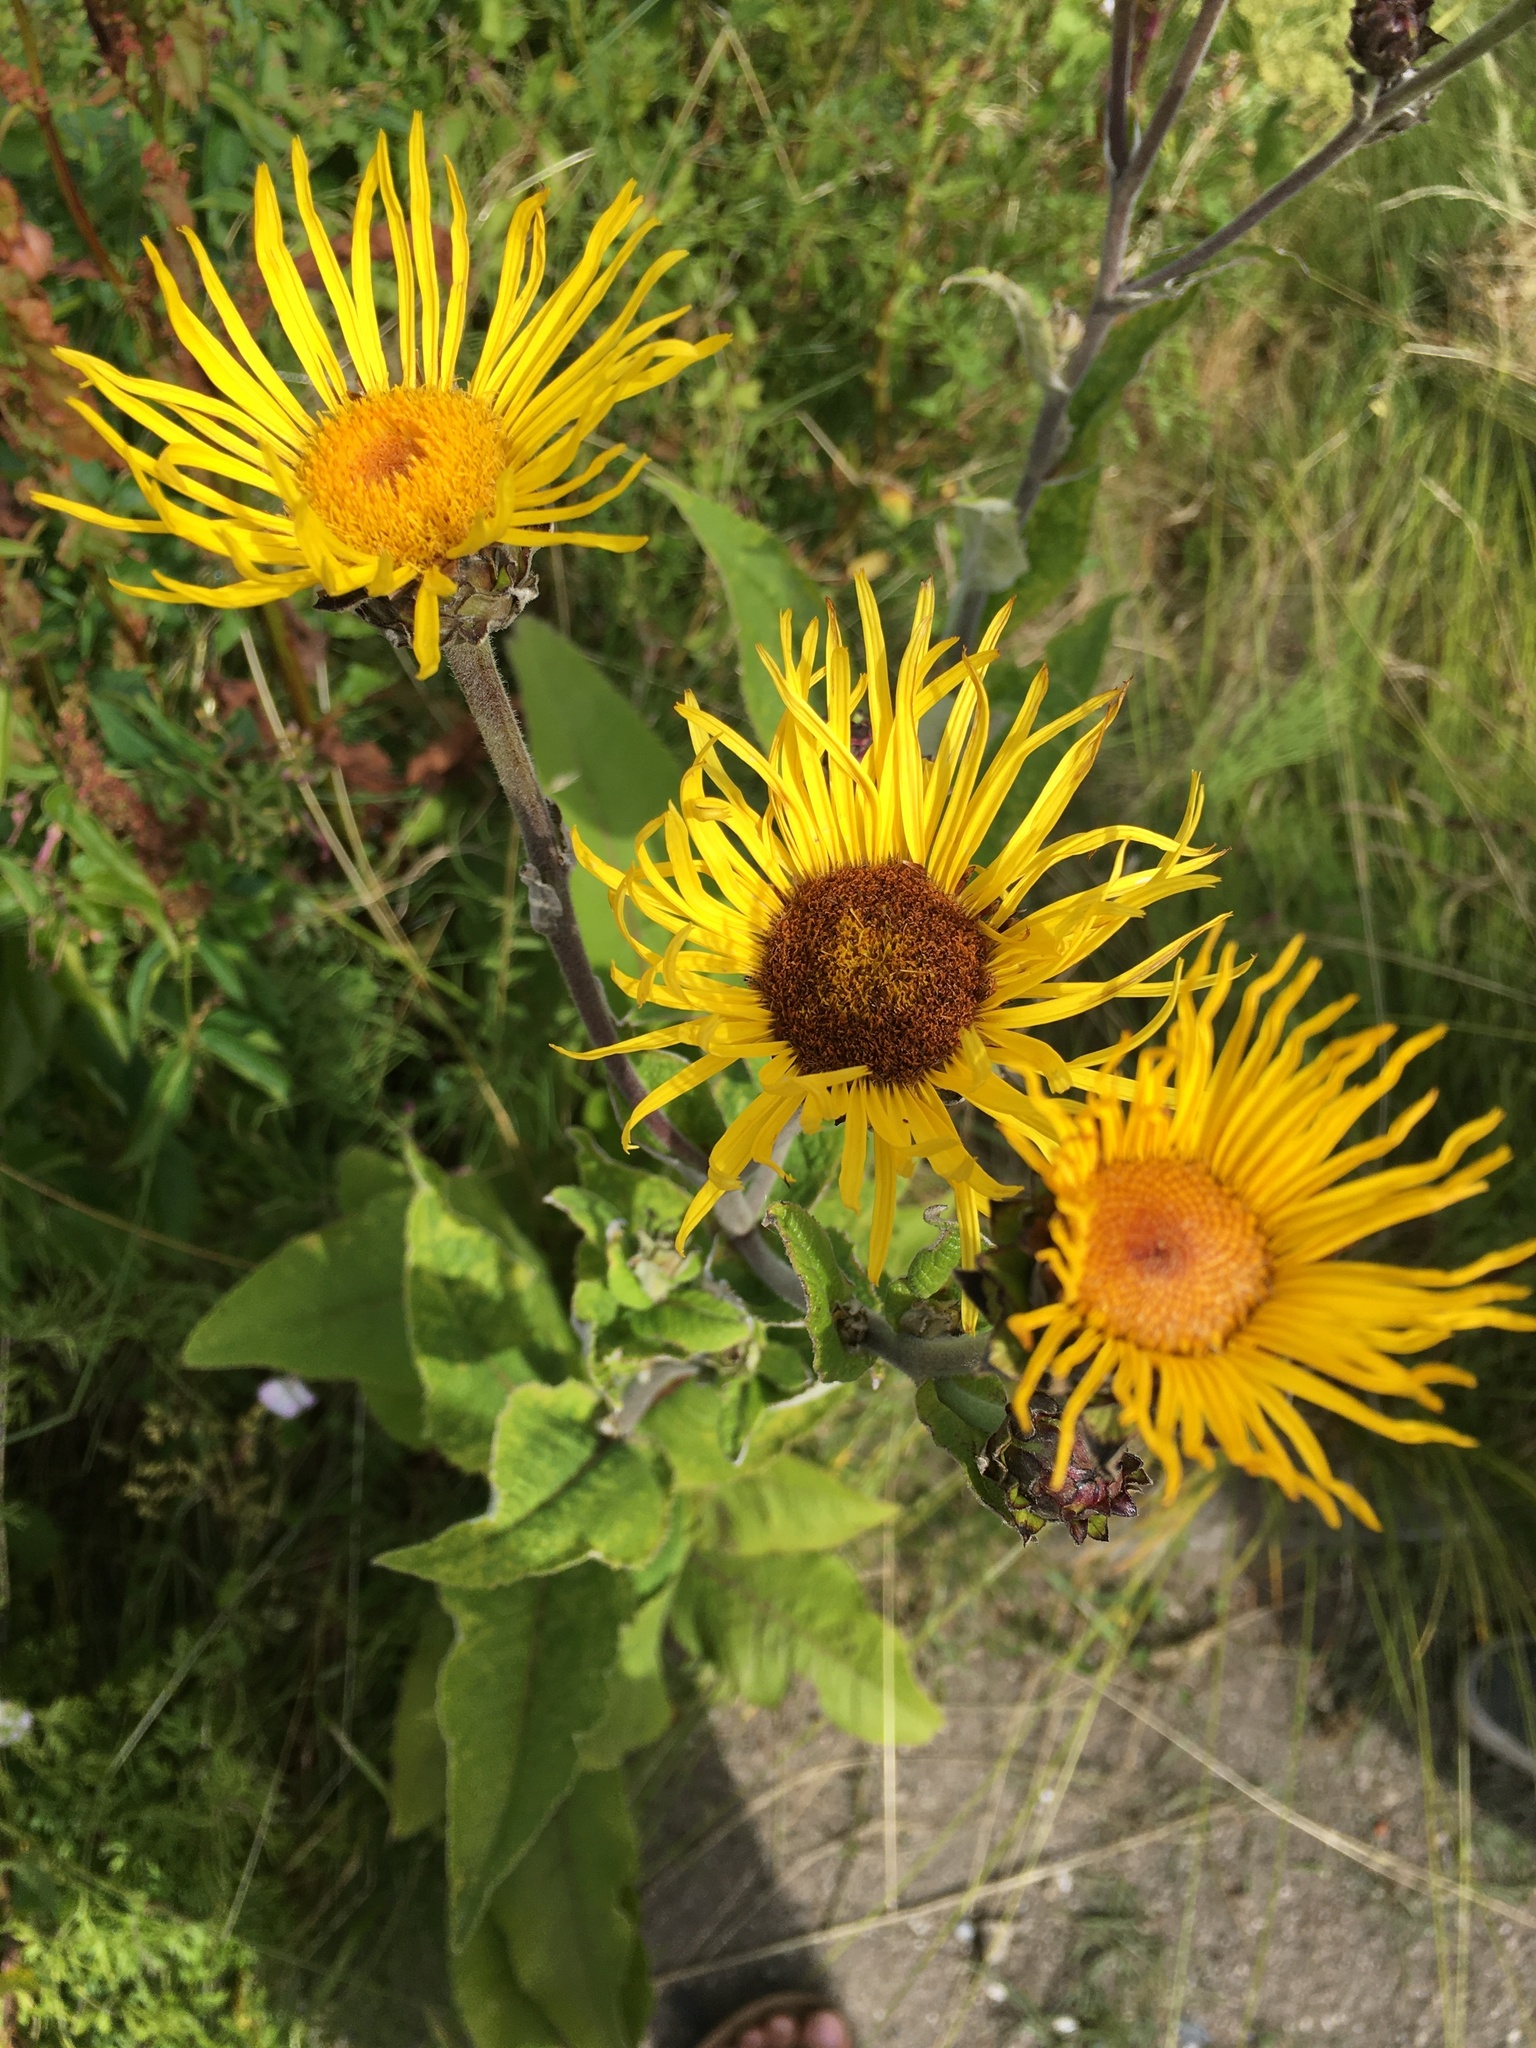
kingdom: Plantae
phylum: Tracheophyta
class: Magnoliopsida
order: Asterales
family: Asteraceae
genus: Inula
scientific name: Inula helenium
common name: Elecampane
